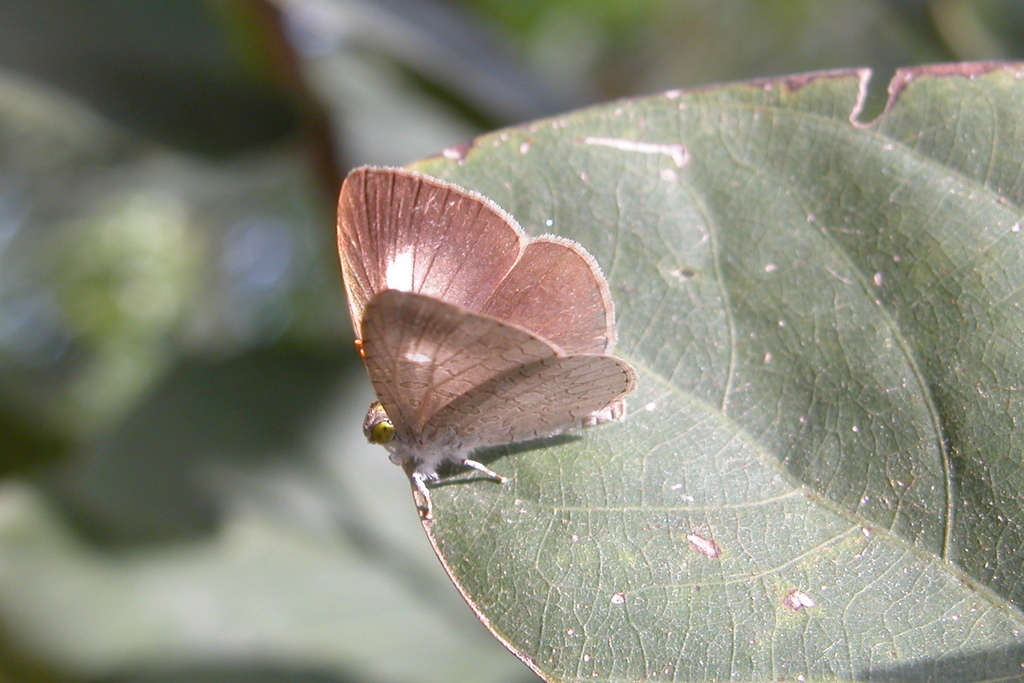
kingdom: Animalia
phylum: Arthropoda
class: Insecta
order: Lepidoptera
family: Lycaenidae
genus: Spalgis
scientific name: Spalgis epius
